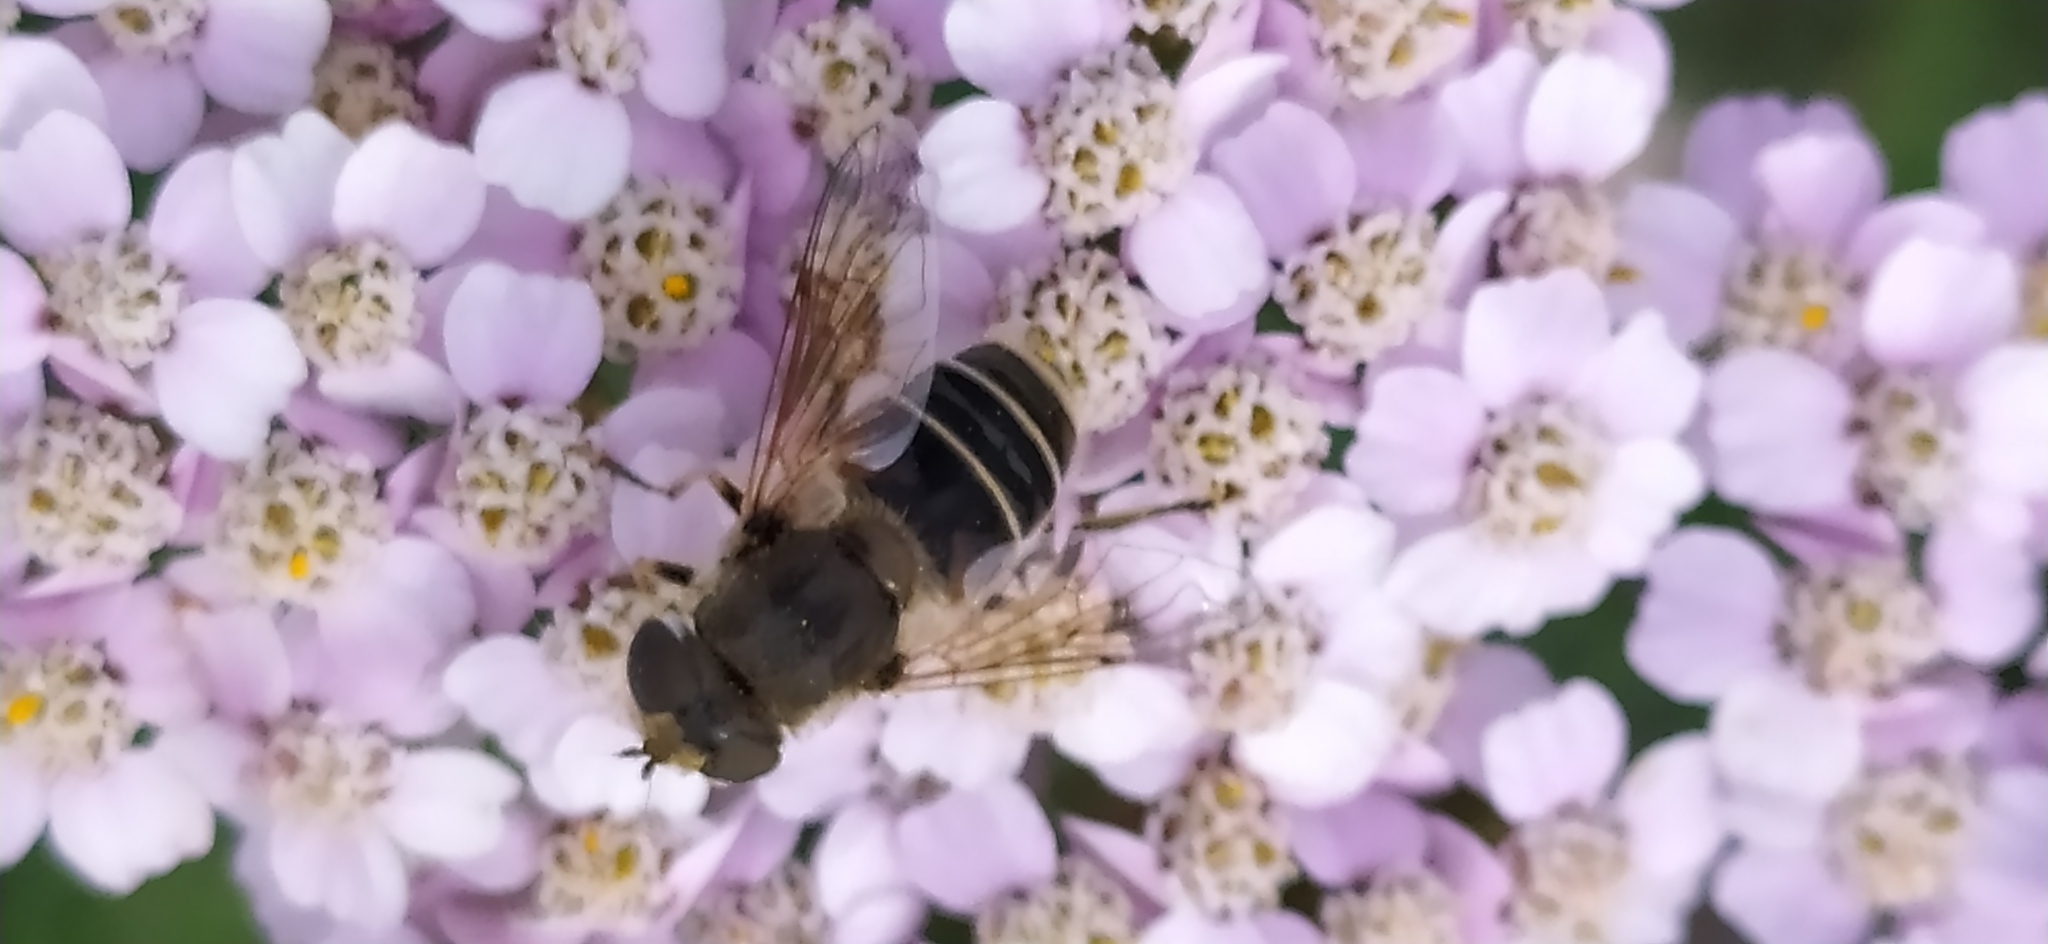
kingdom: Animalia
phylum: Arthropoda
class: Insecta
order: Diptera
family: Syrphidae
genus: Eristalis
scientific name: Eristalis arbustorum
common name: Hover fly
